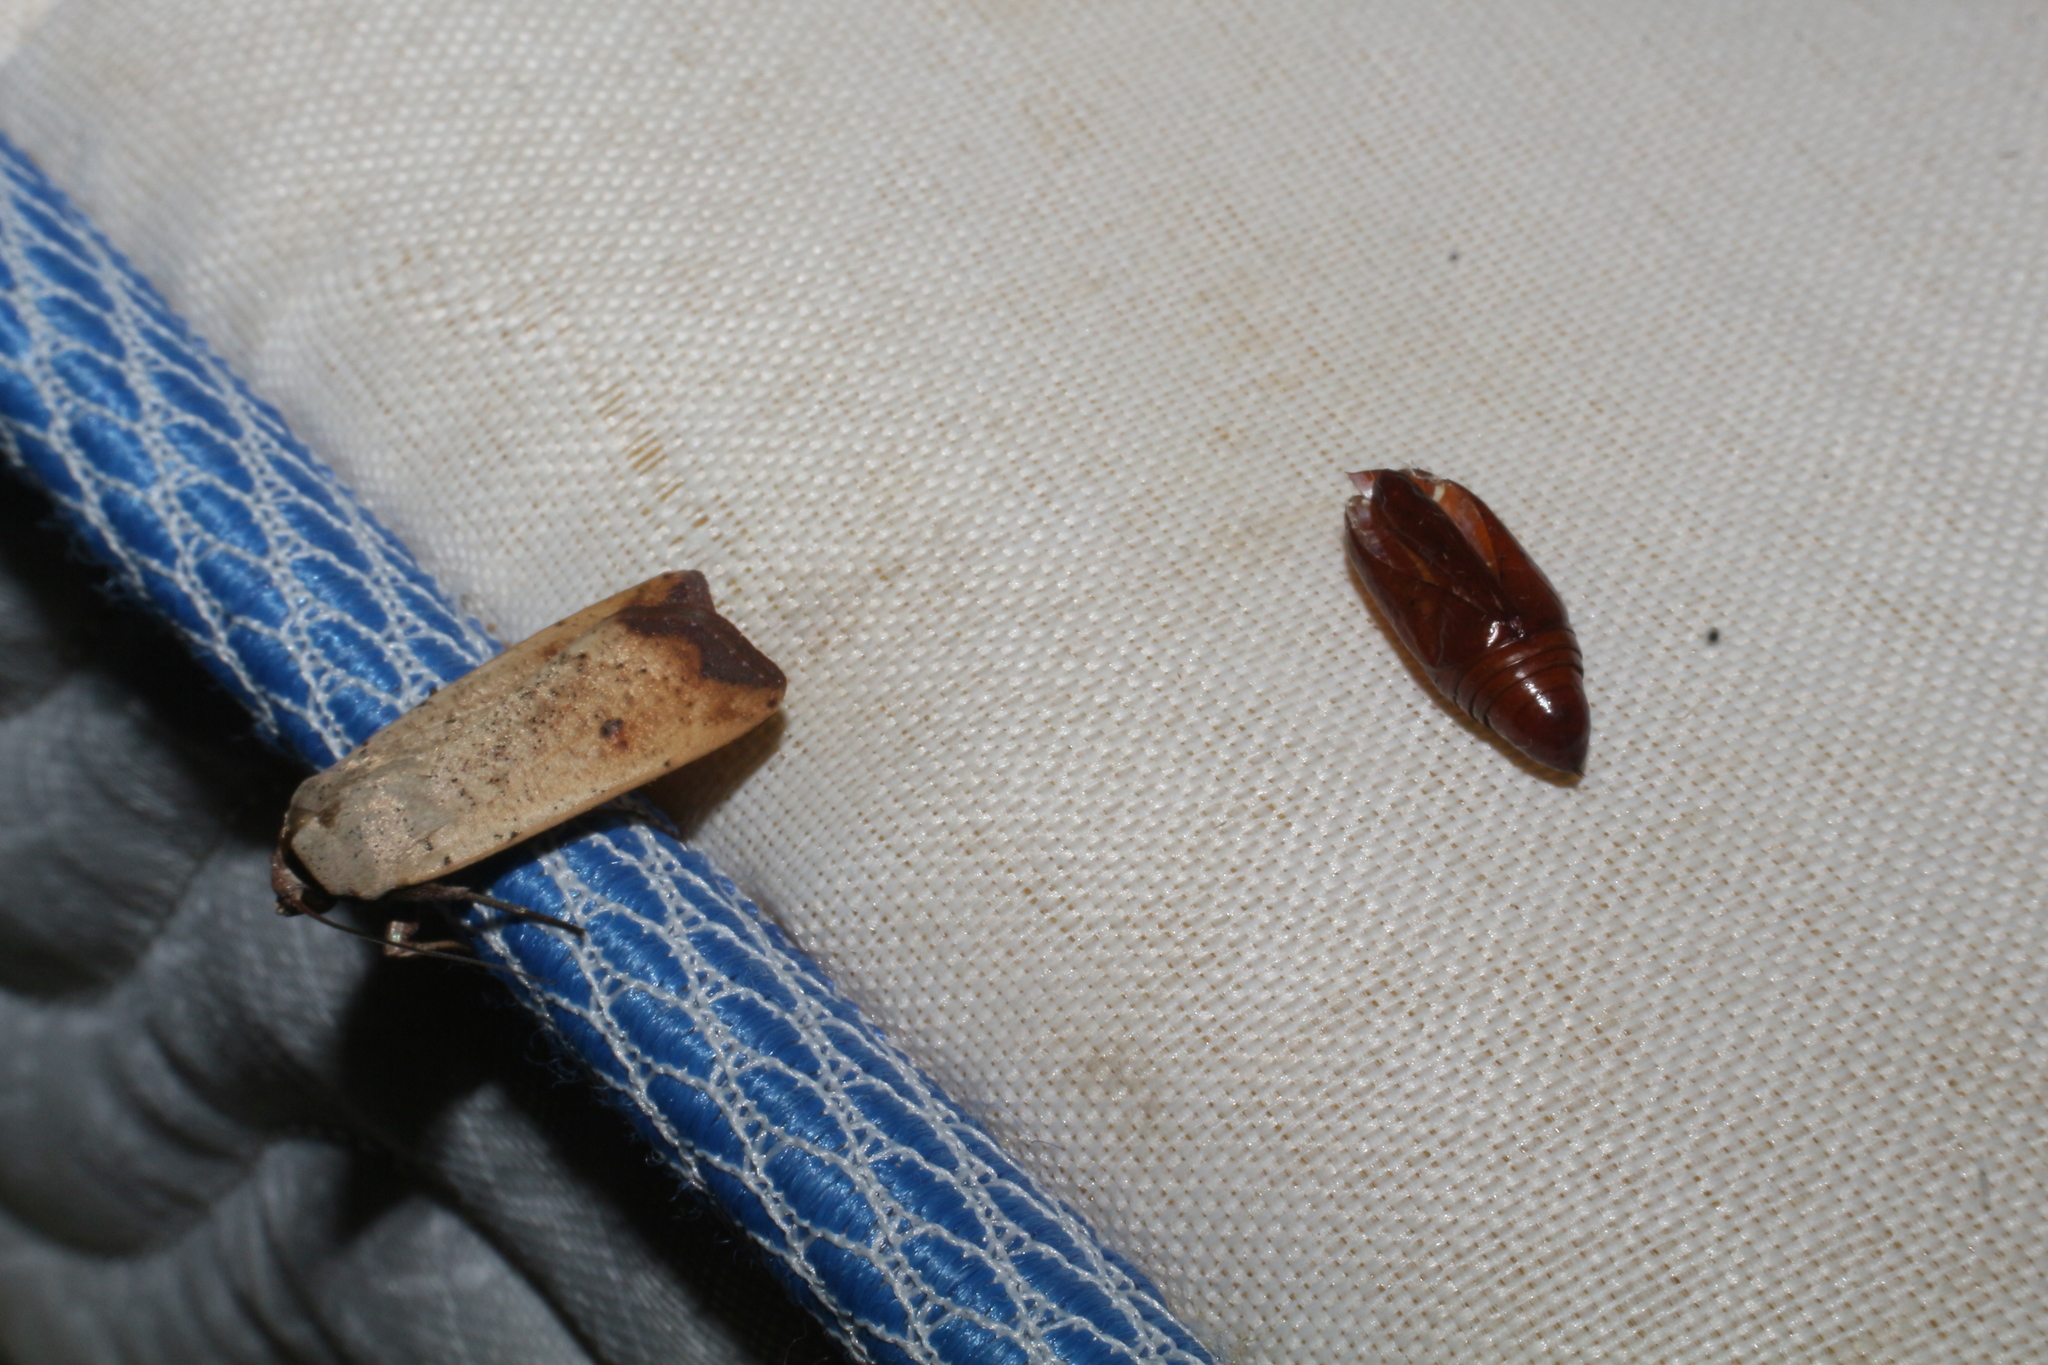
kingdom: Animalia
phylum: Arthropoda
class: Insecta
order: Lepidoptera
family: Noctuidae
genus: Anicla
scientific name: Anicla ignicans
